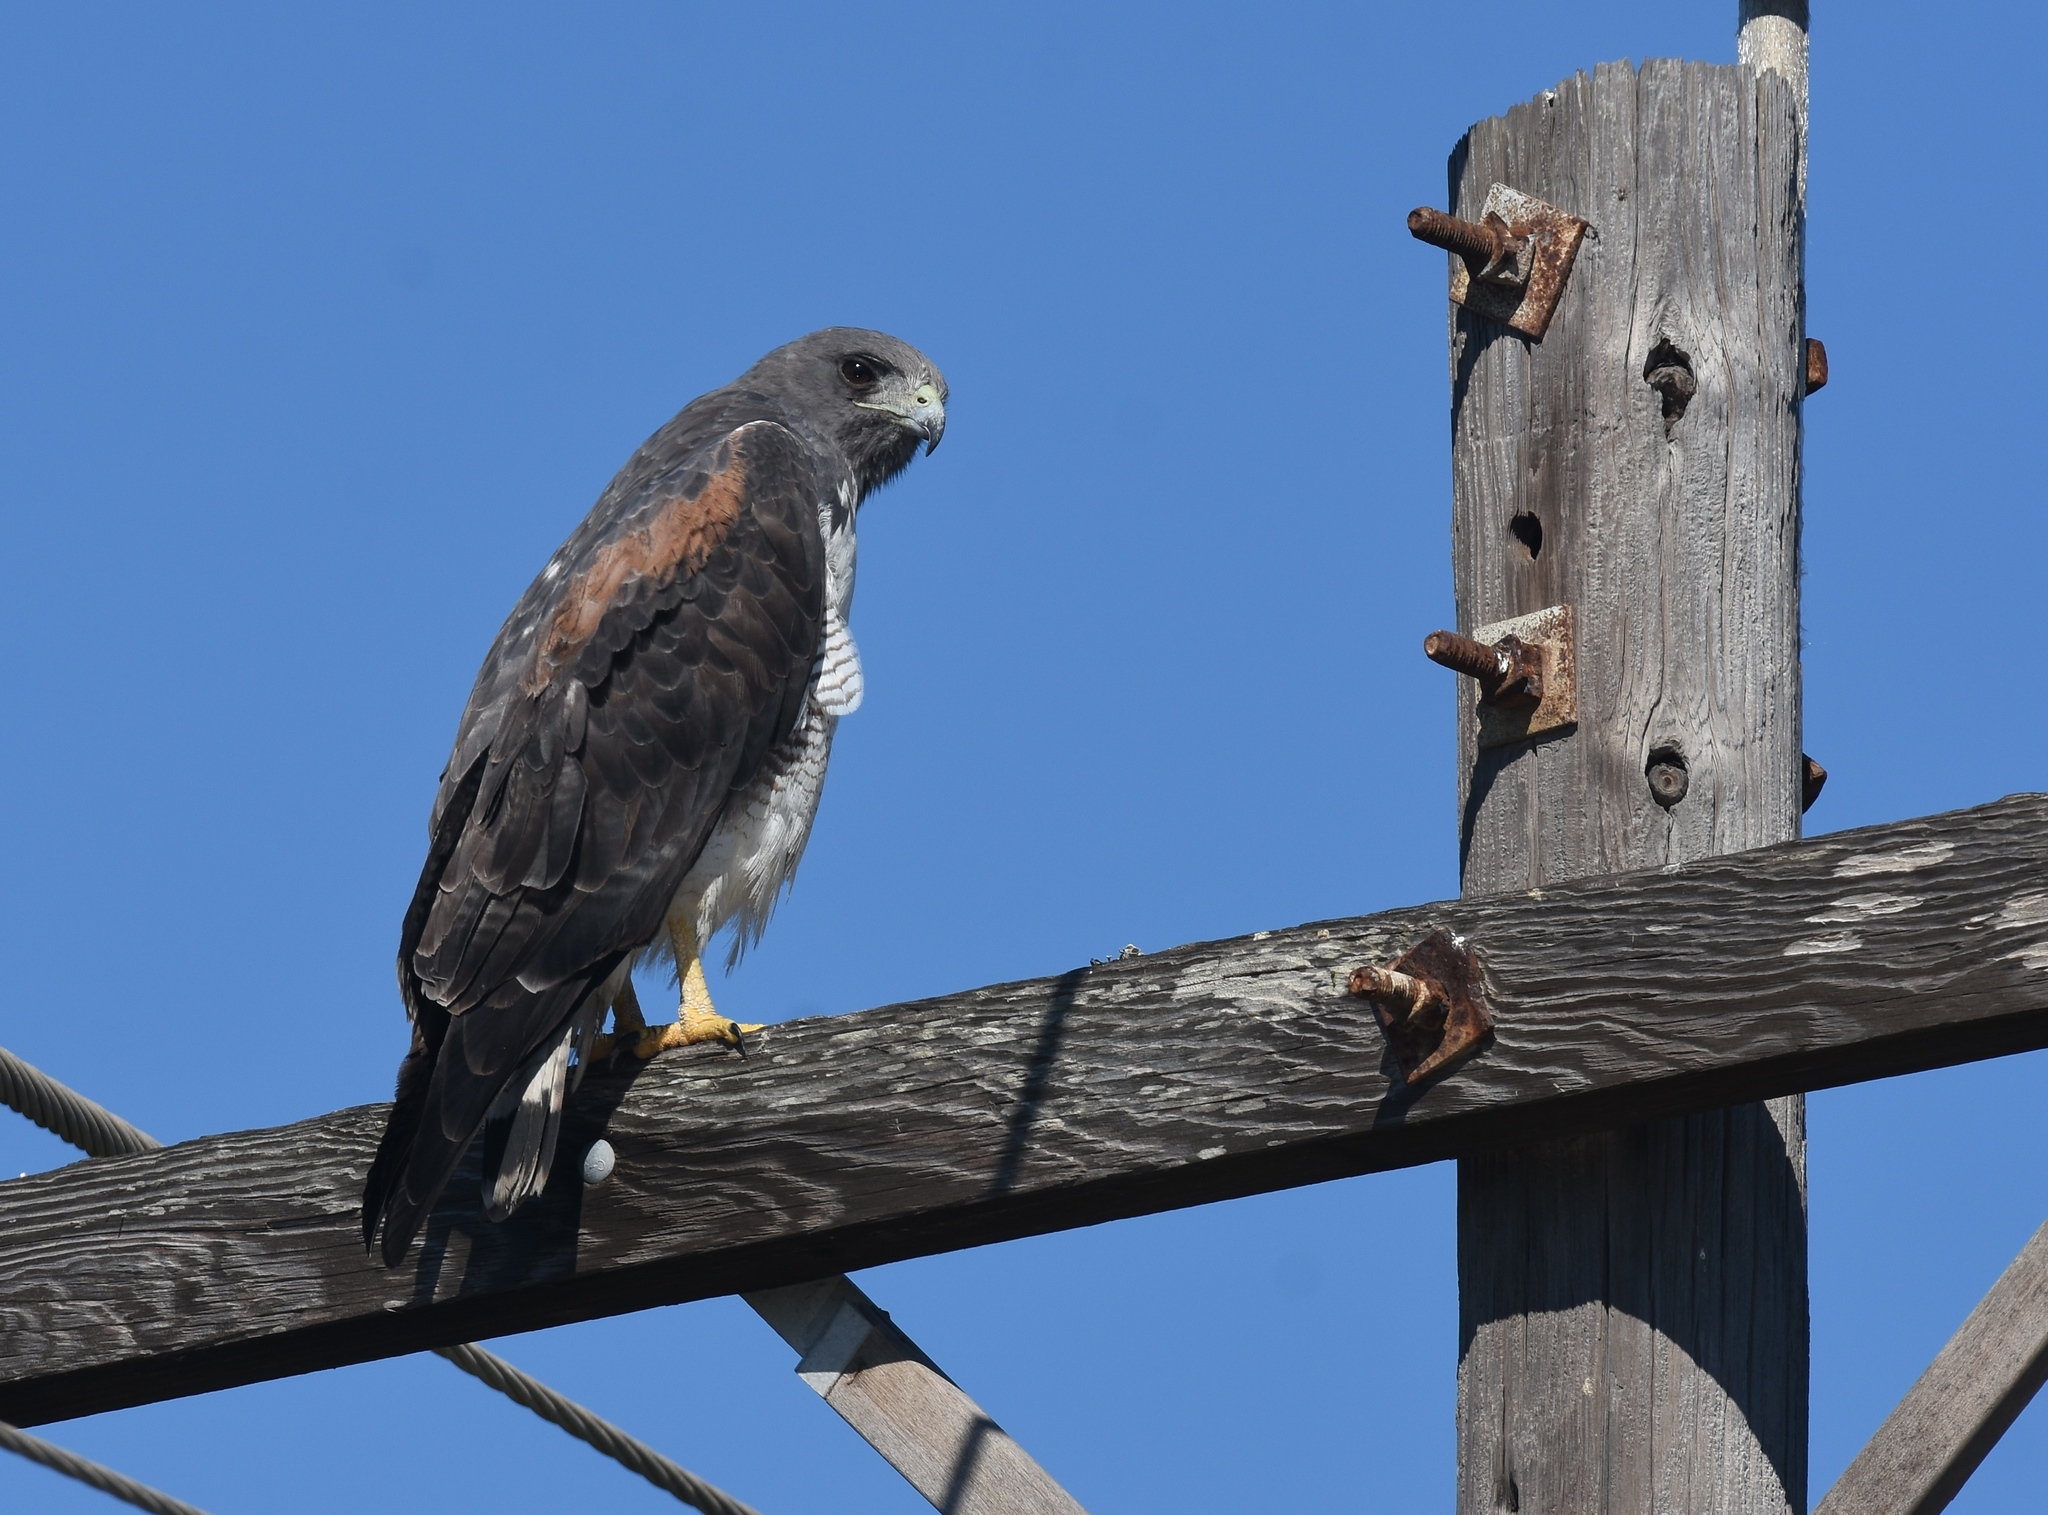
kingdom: Animalia
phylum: Chordata
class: Aves
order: Accipitriformes
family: Accipitridae
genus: Buteo
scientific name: Buteo albicaudatus
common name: White-tailed hawk
